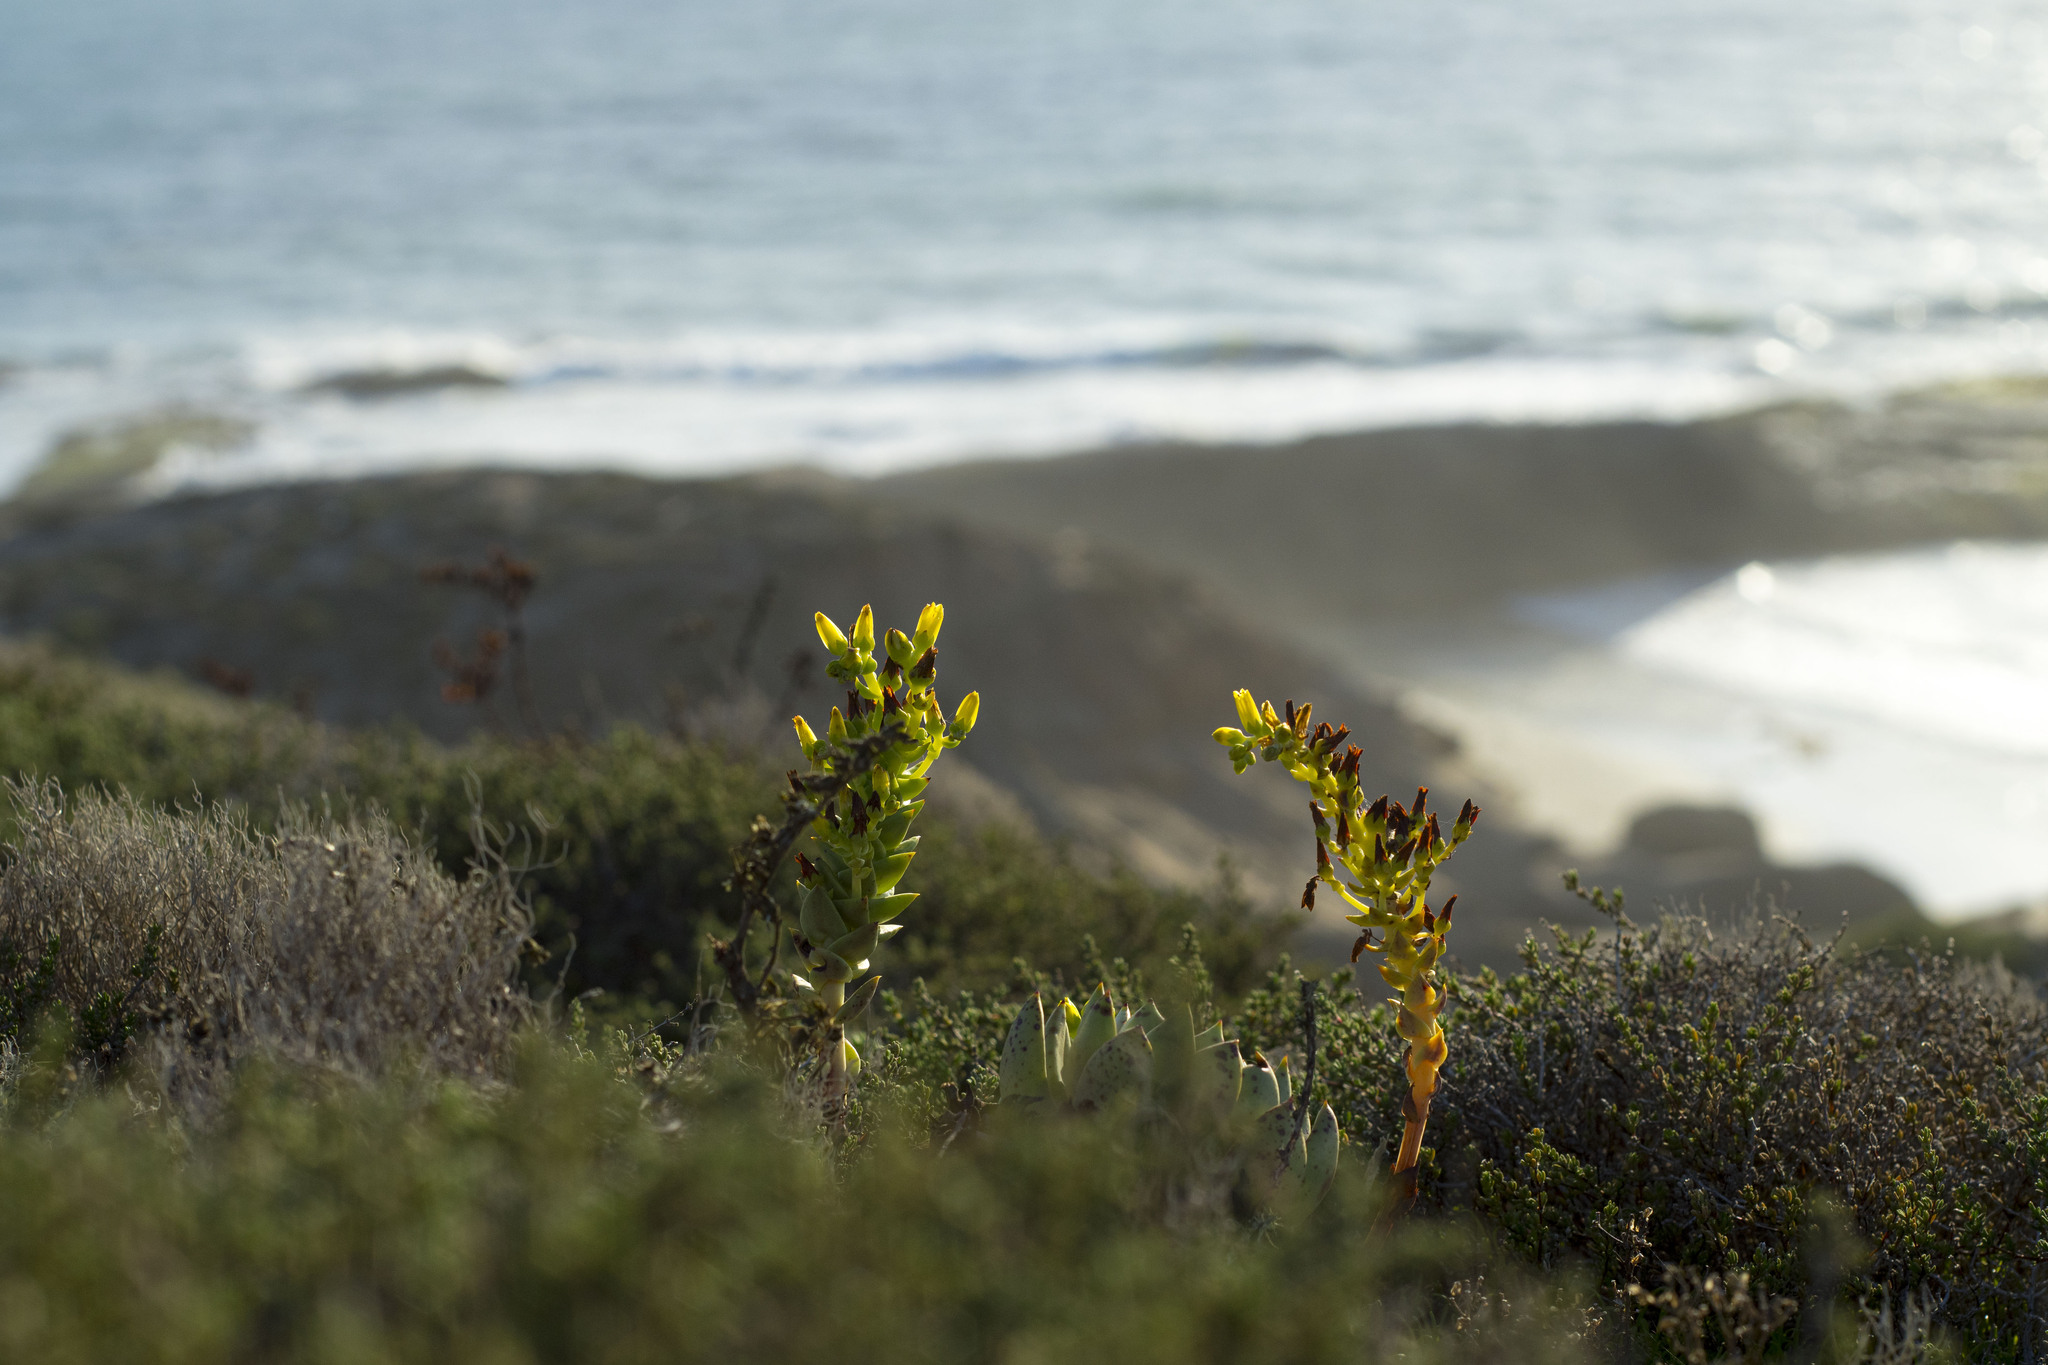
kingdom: Plantae
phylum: Tracheophyta
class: Magnoliopsida
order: Saxifragales
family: Crassulaceae
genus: Dudleya
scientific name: Dudleya
